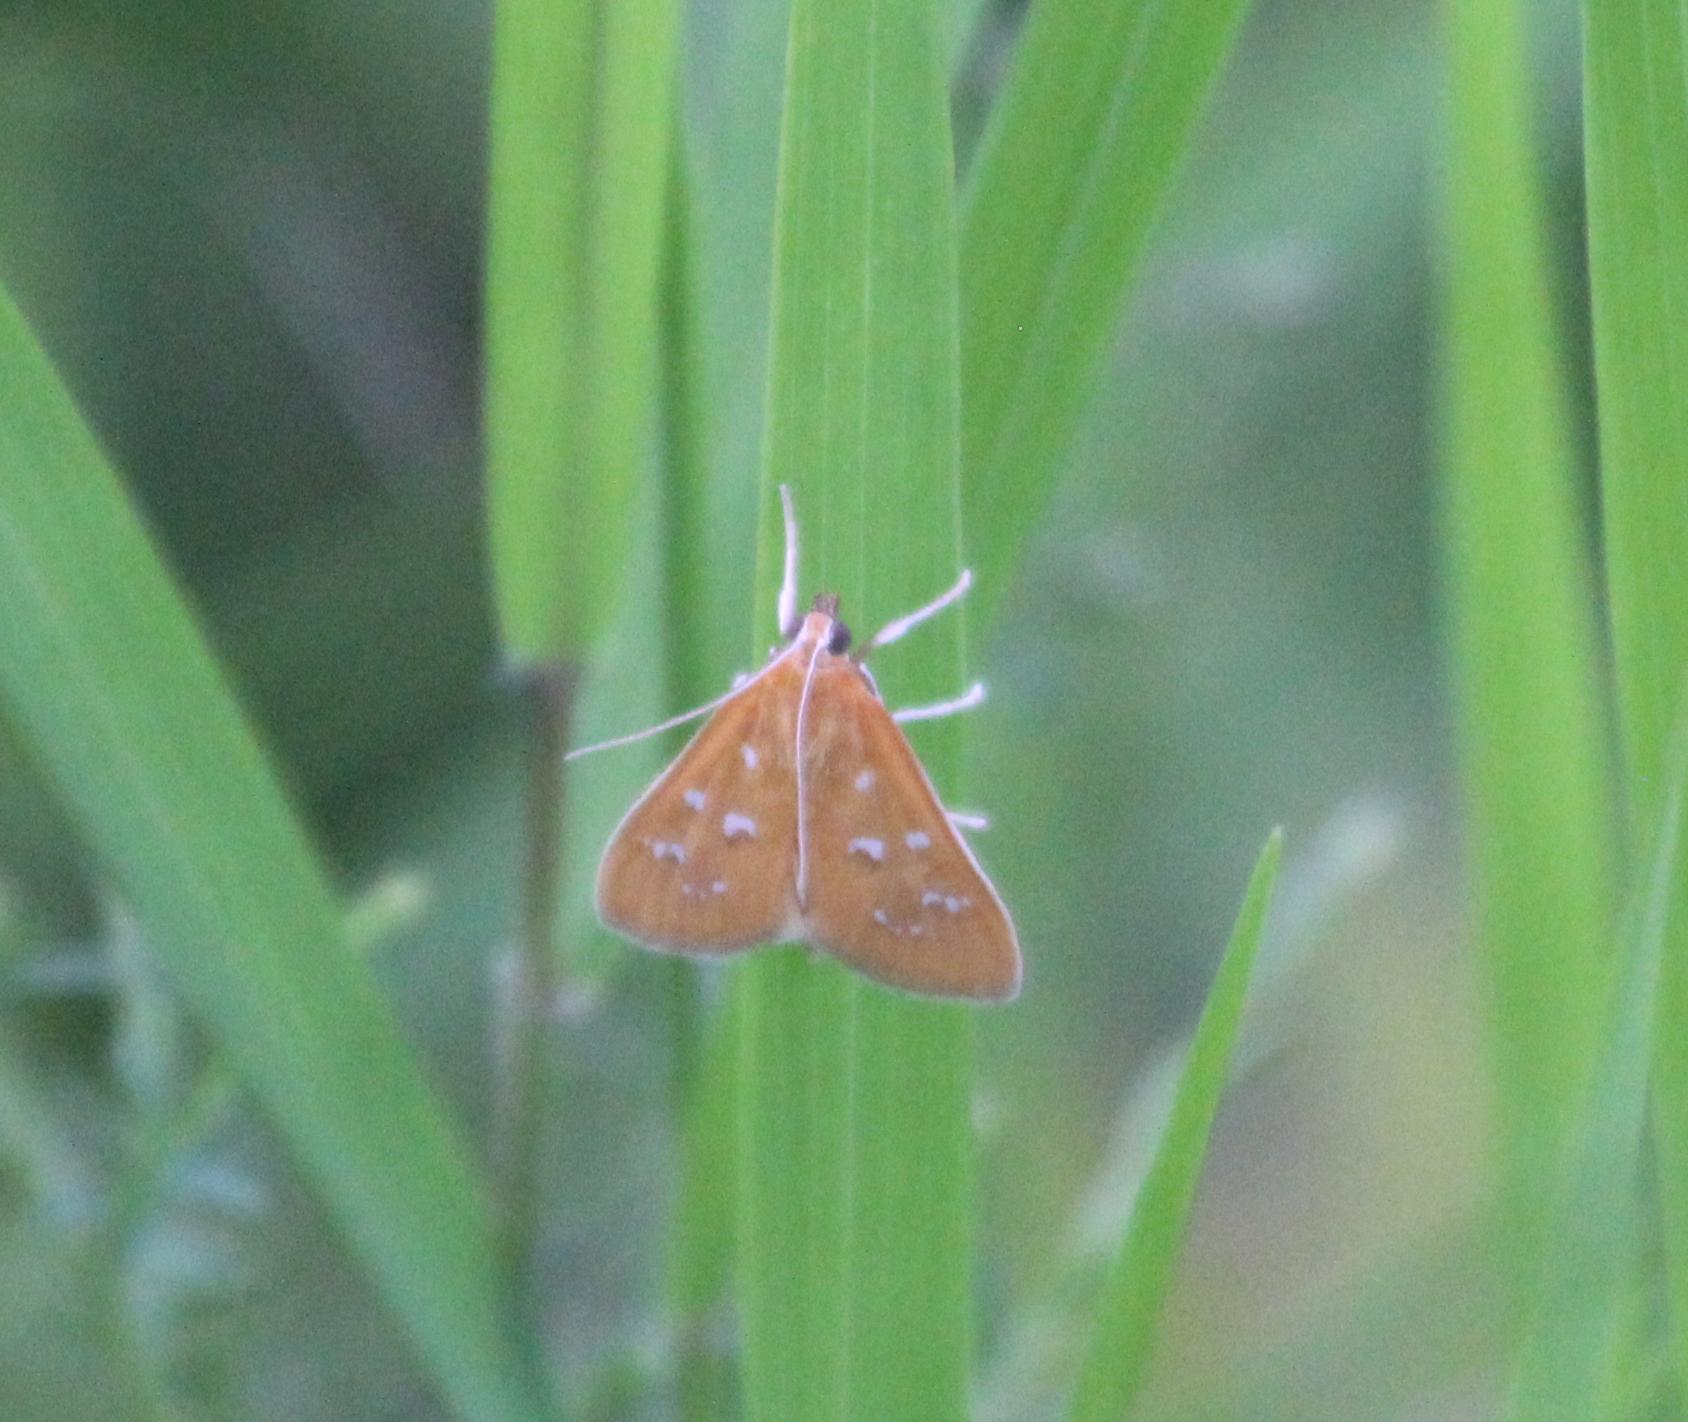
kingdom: Animalia
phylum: Arthropoda
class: Insecta
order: Lepidoptera
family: Crambidae
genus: Diastictis
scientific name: Diastictis argyralis
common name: White-spotted orange
